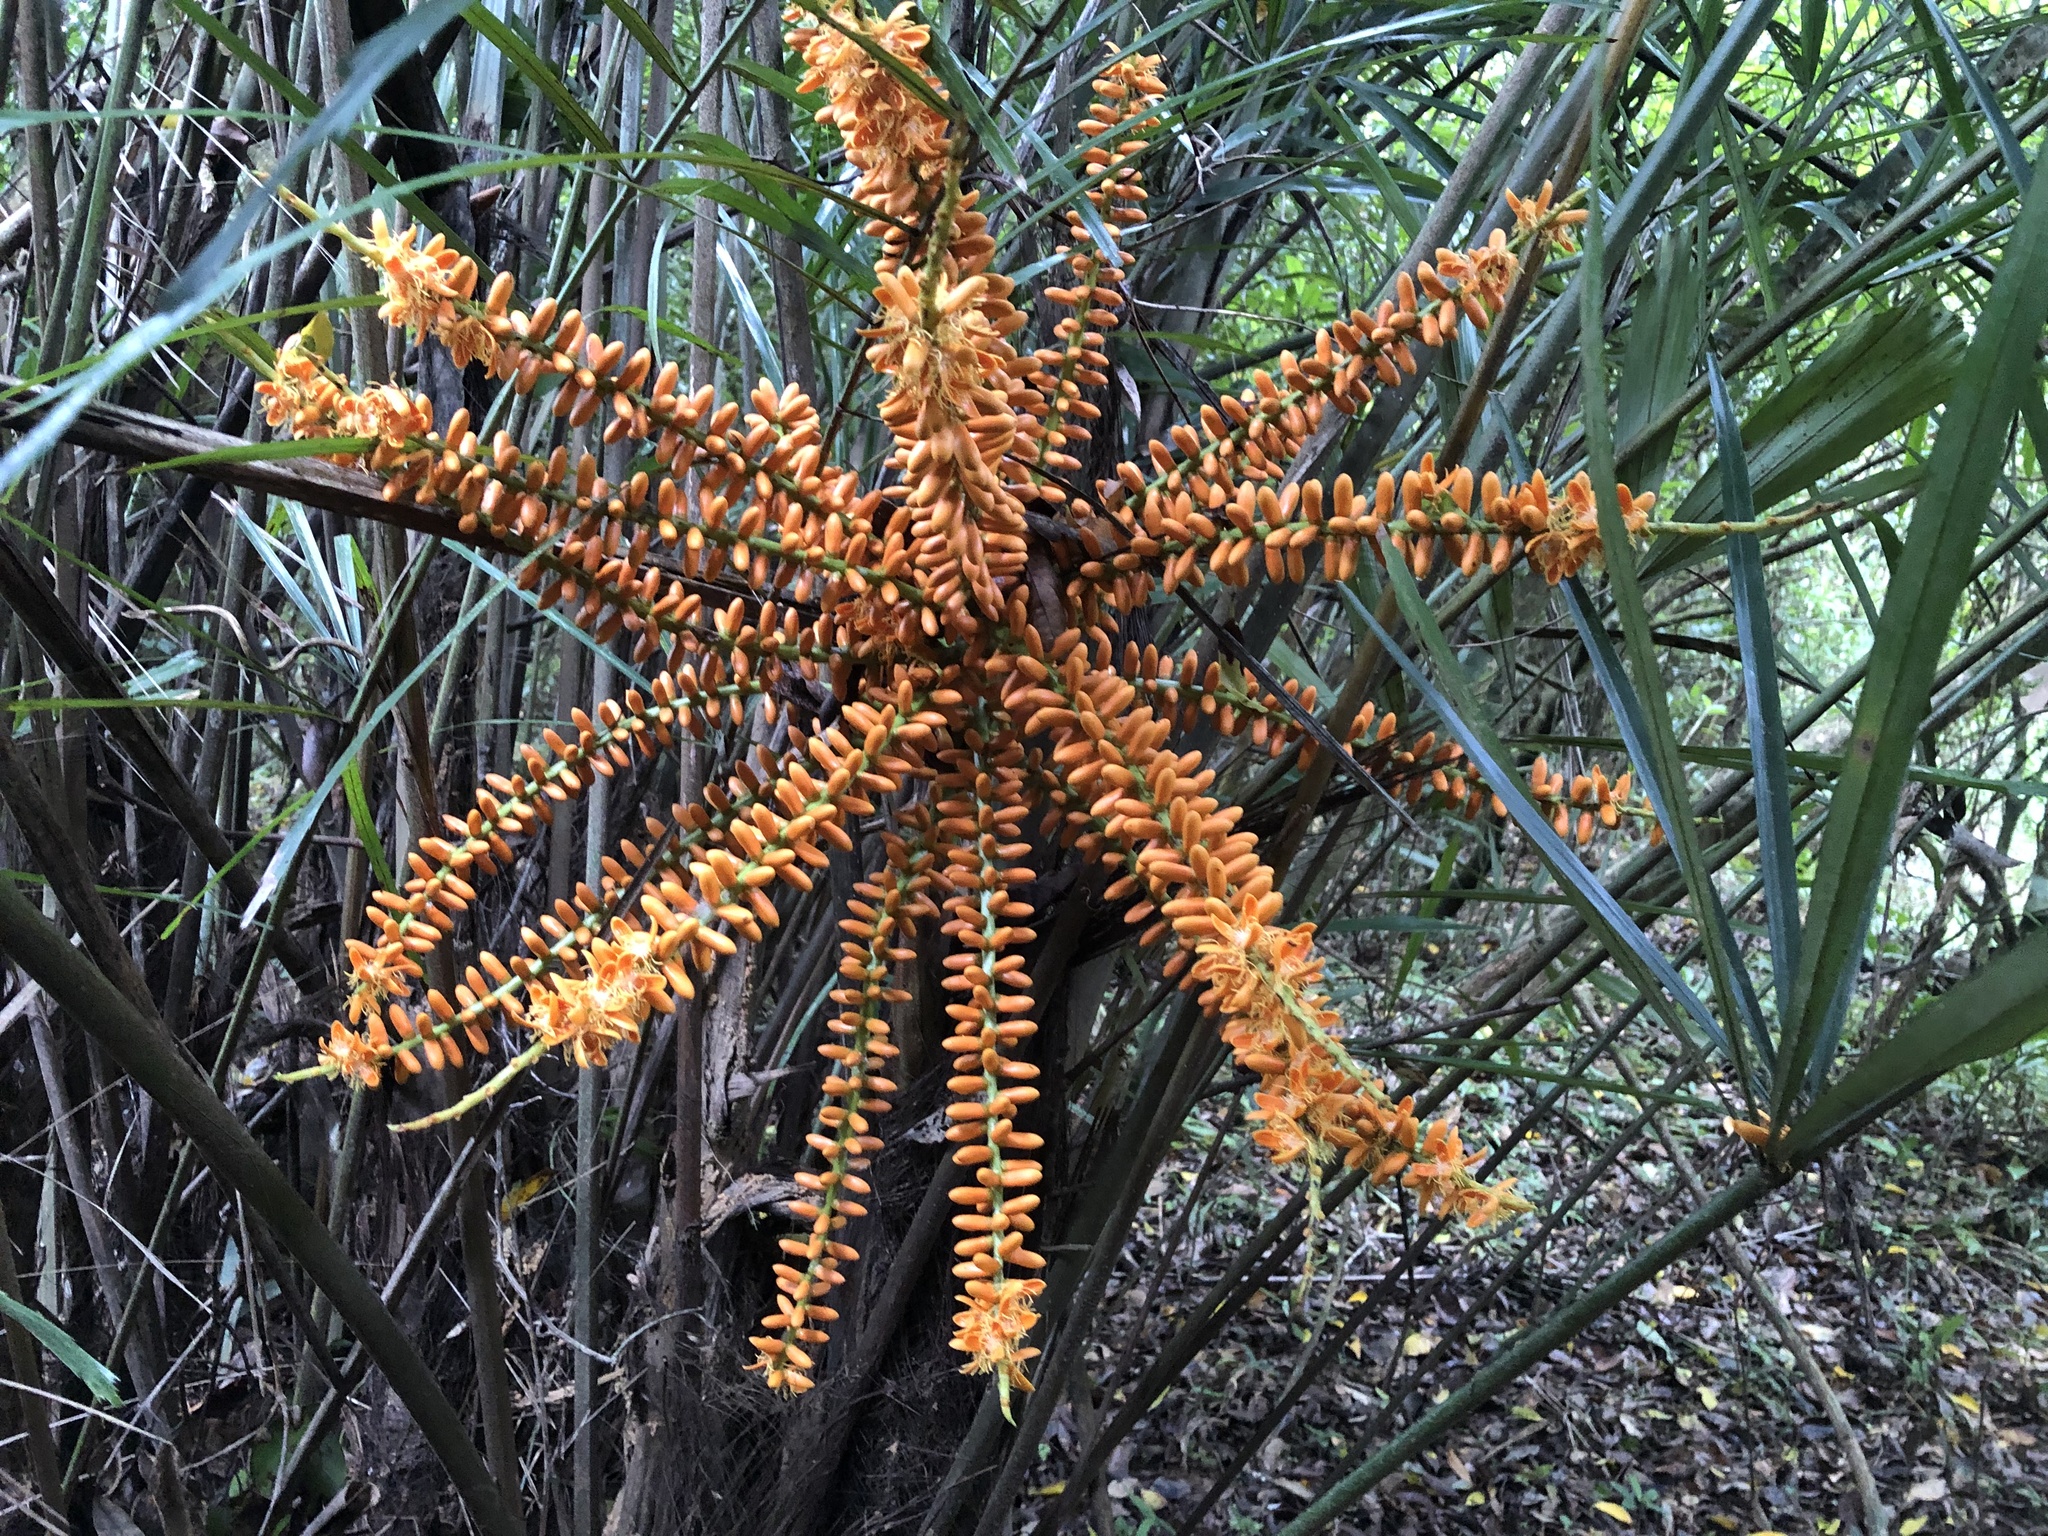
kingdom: Plantae
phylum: Tracheophyta
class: Liliopsida
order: Arecales
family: Arecaceae
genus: Arenga
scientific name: Arenga engleri
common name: Formosan sugar palm
